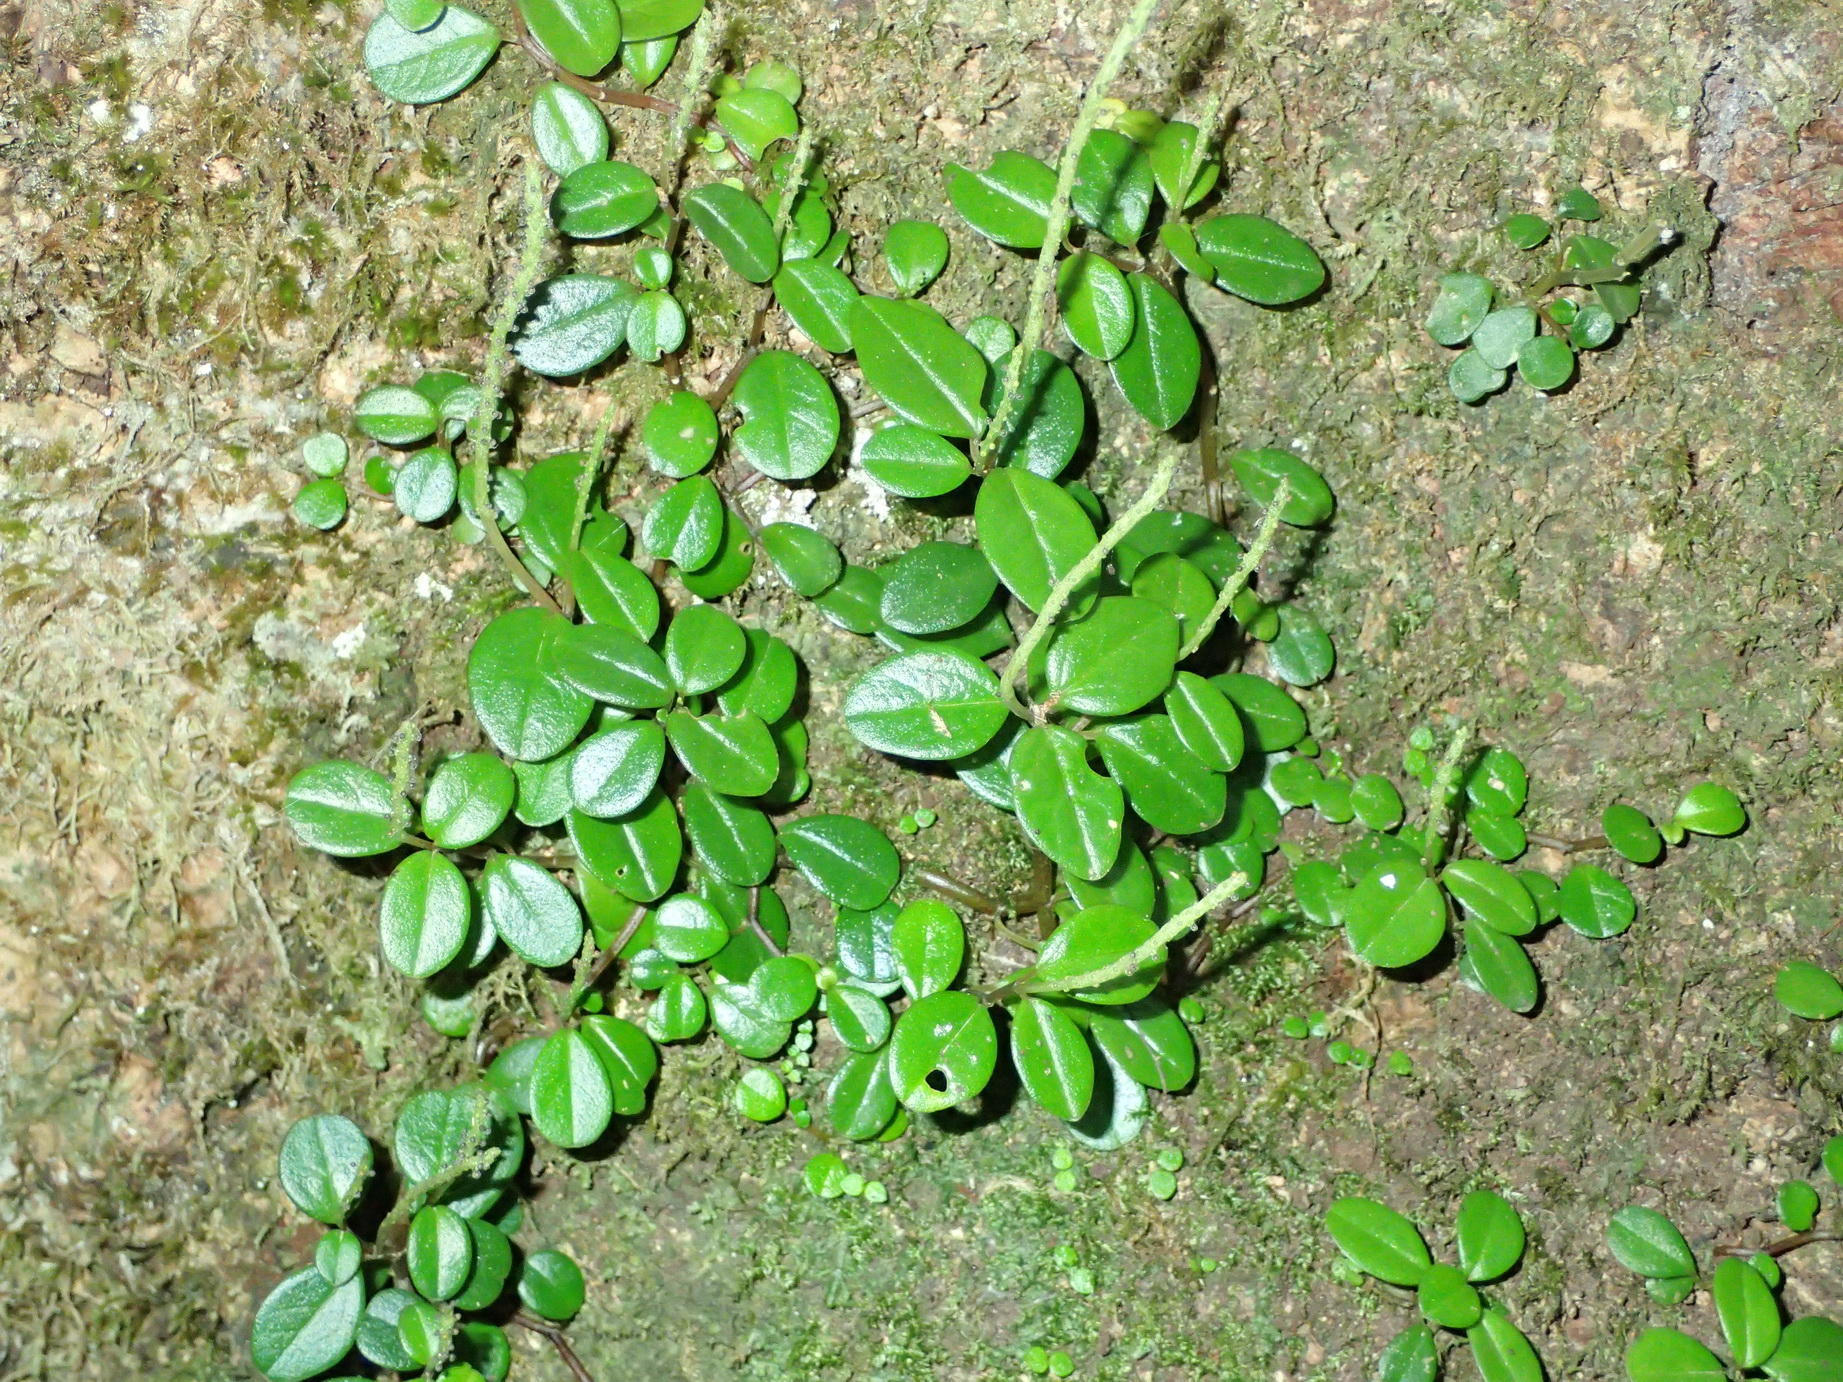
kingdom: Plantae
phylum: Tracheophyta
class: Magnoliopsida
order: Piperales
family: Piperaceae
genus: Peperomia
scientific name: Peperomia retusa
